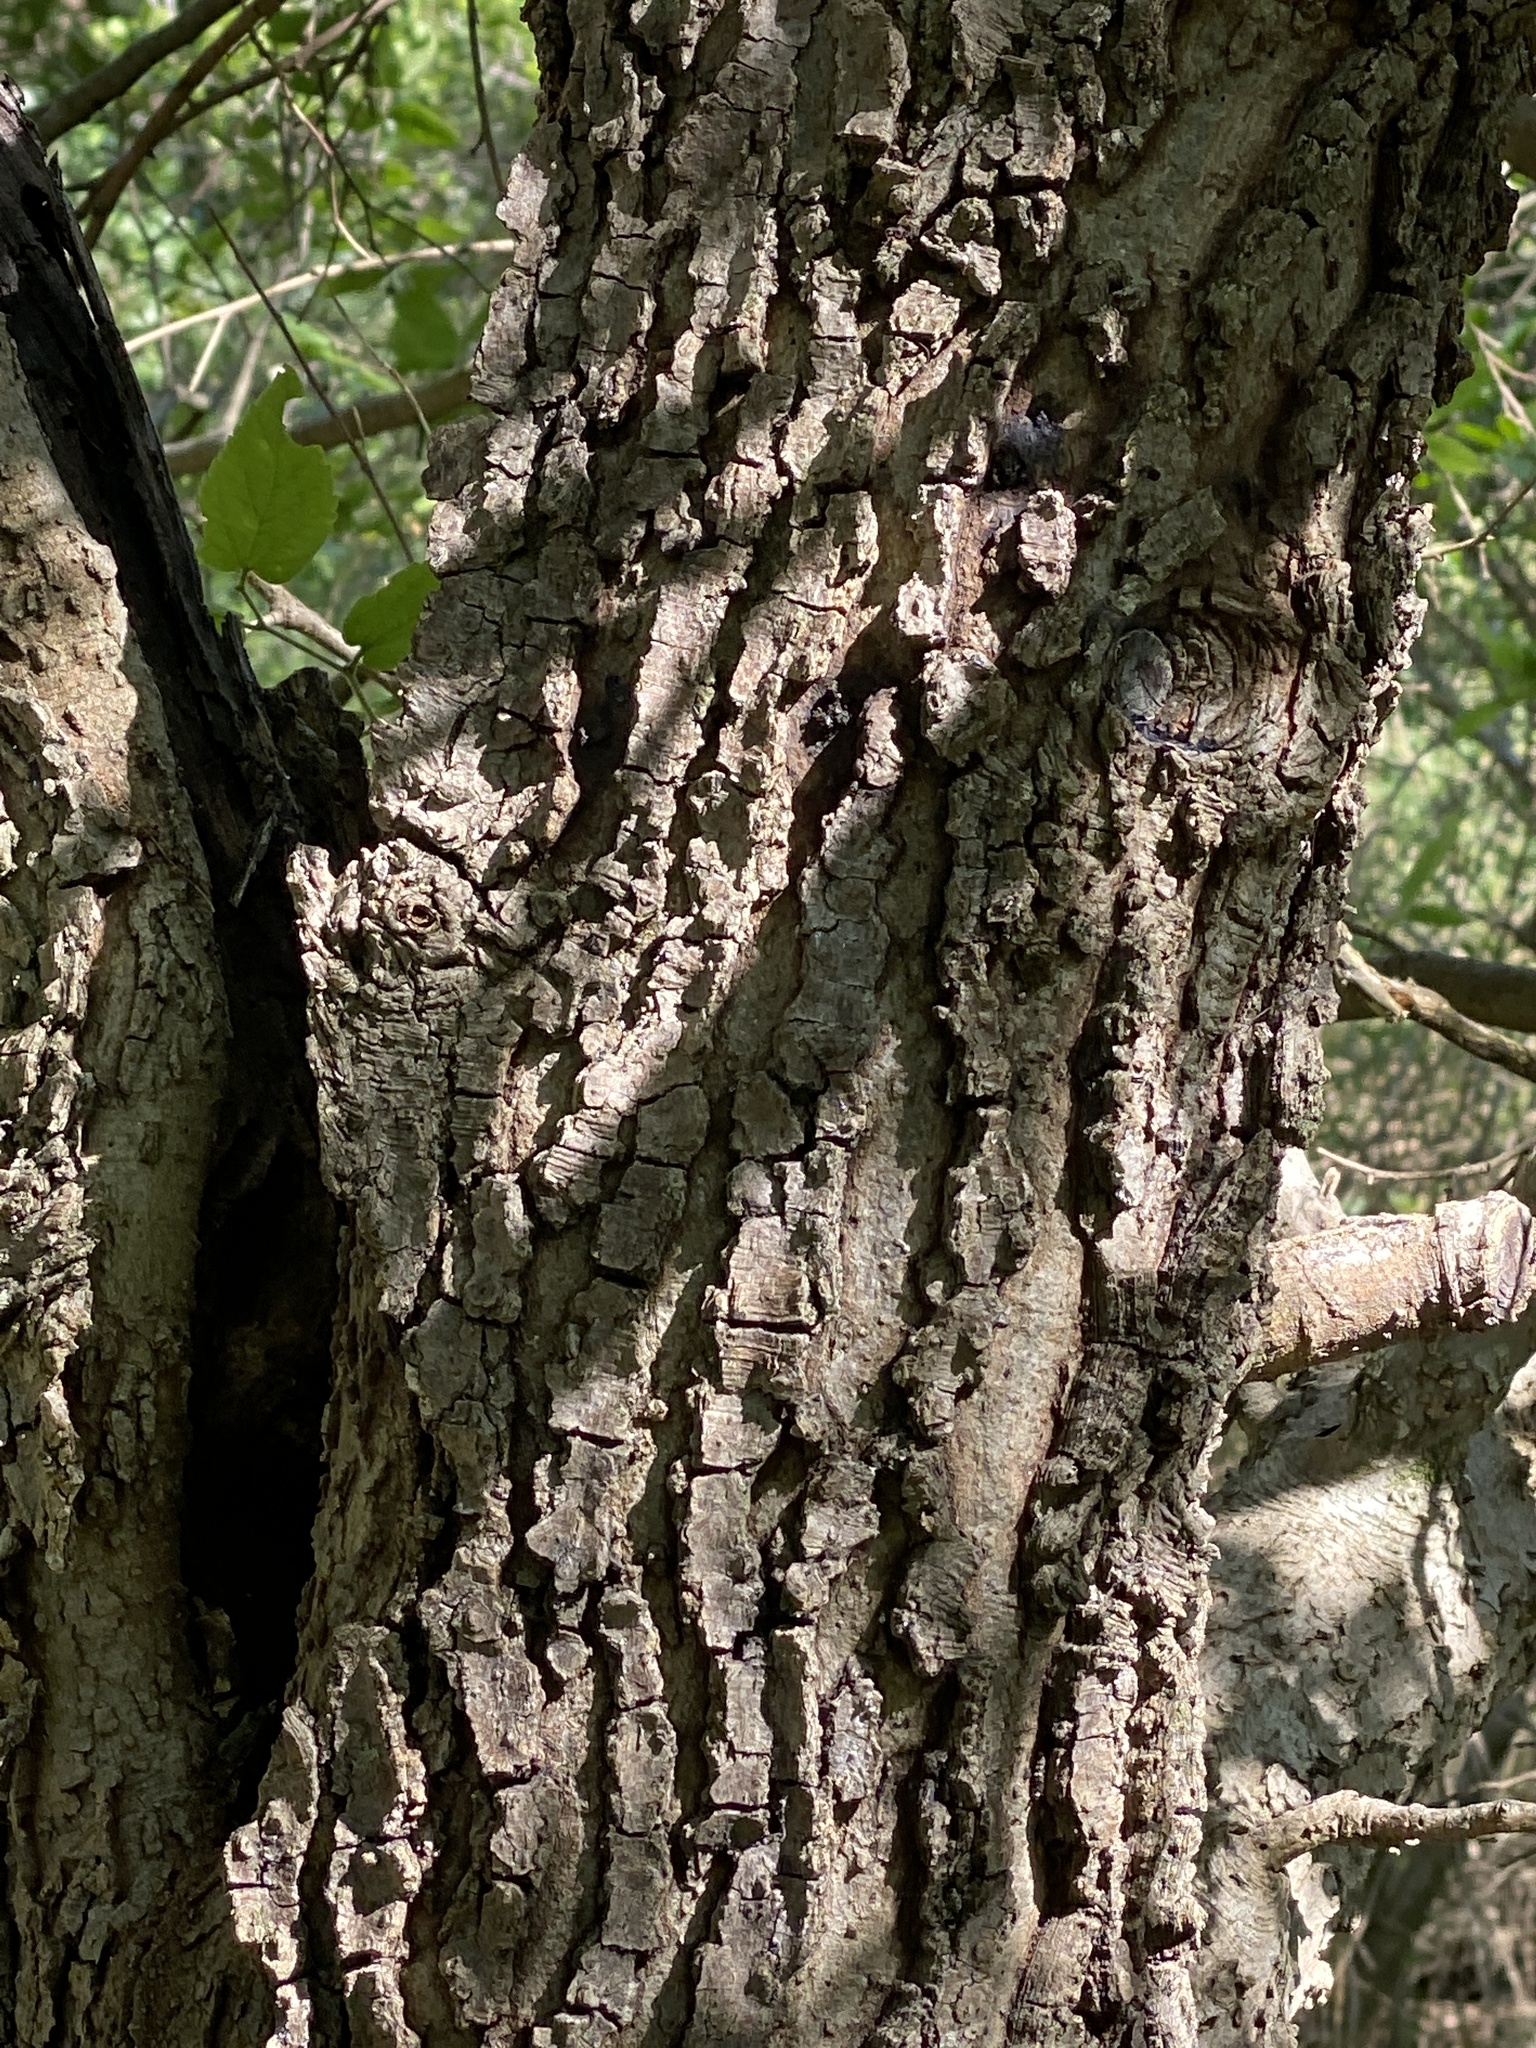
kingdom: Plantae
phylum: Tracheophyta
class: Magnoliopsida
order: Rosales
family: Cannabaceae
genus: Celtis
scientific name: Celtis reticulata
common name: Netleaf hackberry
